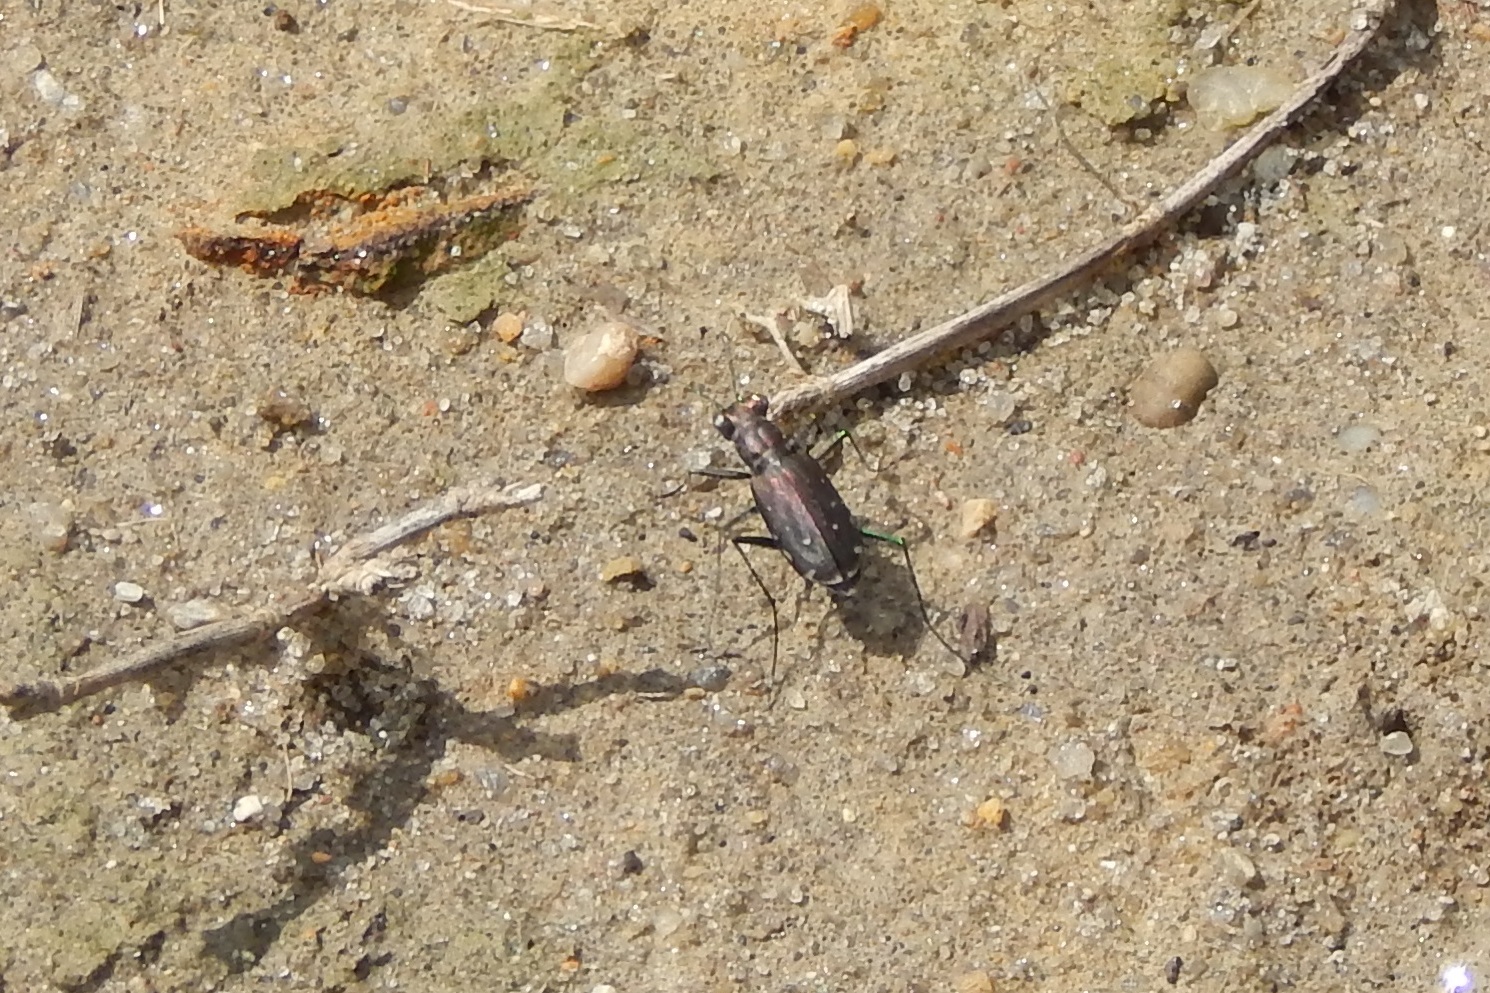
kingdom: Animalia
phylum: Arthropoda
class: Insecta
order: Coleoptera
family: Carabidae
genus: Cicindela
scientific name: Cicindela punctulata
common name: Punctured tiger beetle
